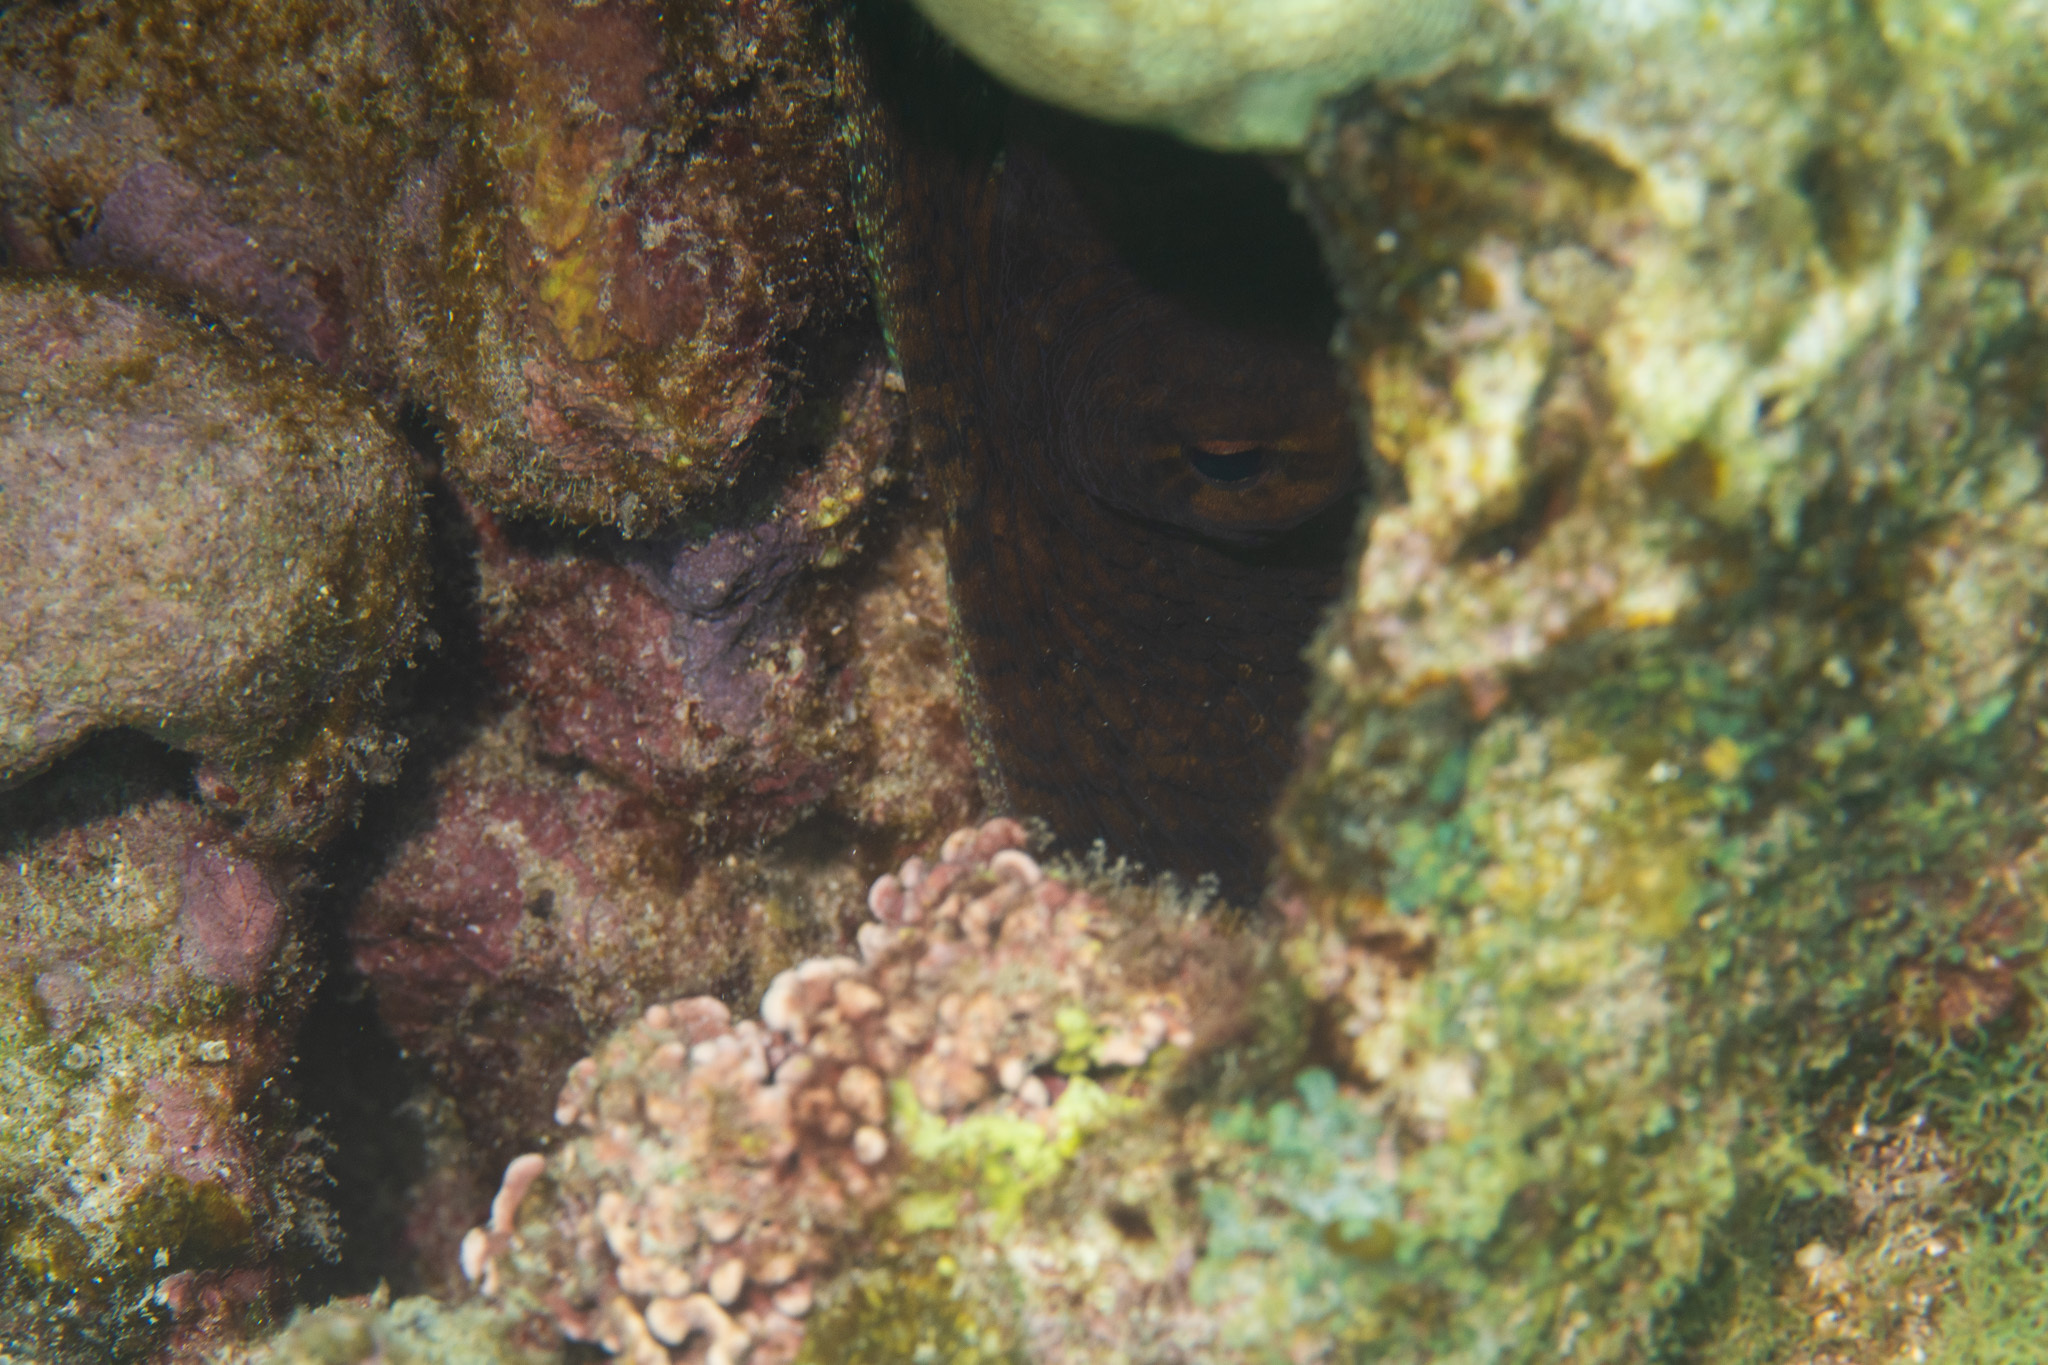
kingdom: Animalia
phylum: Mollusca
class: Cephalopoda
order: Octopoda
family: Octopodidae
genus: Octopus
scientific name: Octopus cyanea
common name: Cyane's octopus
